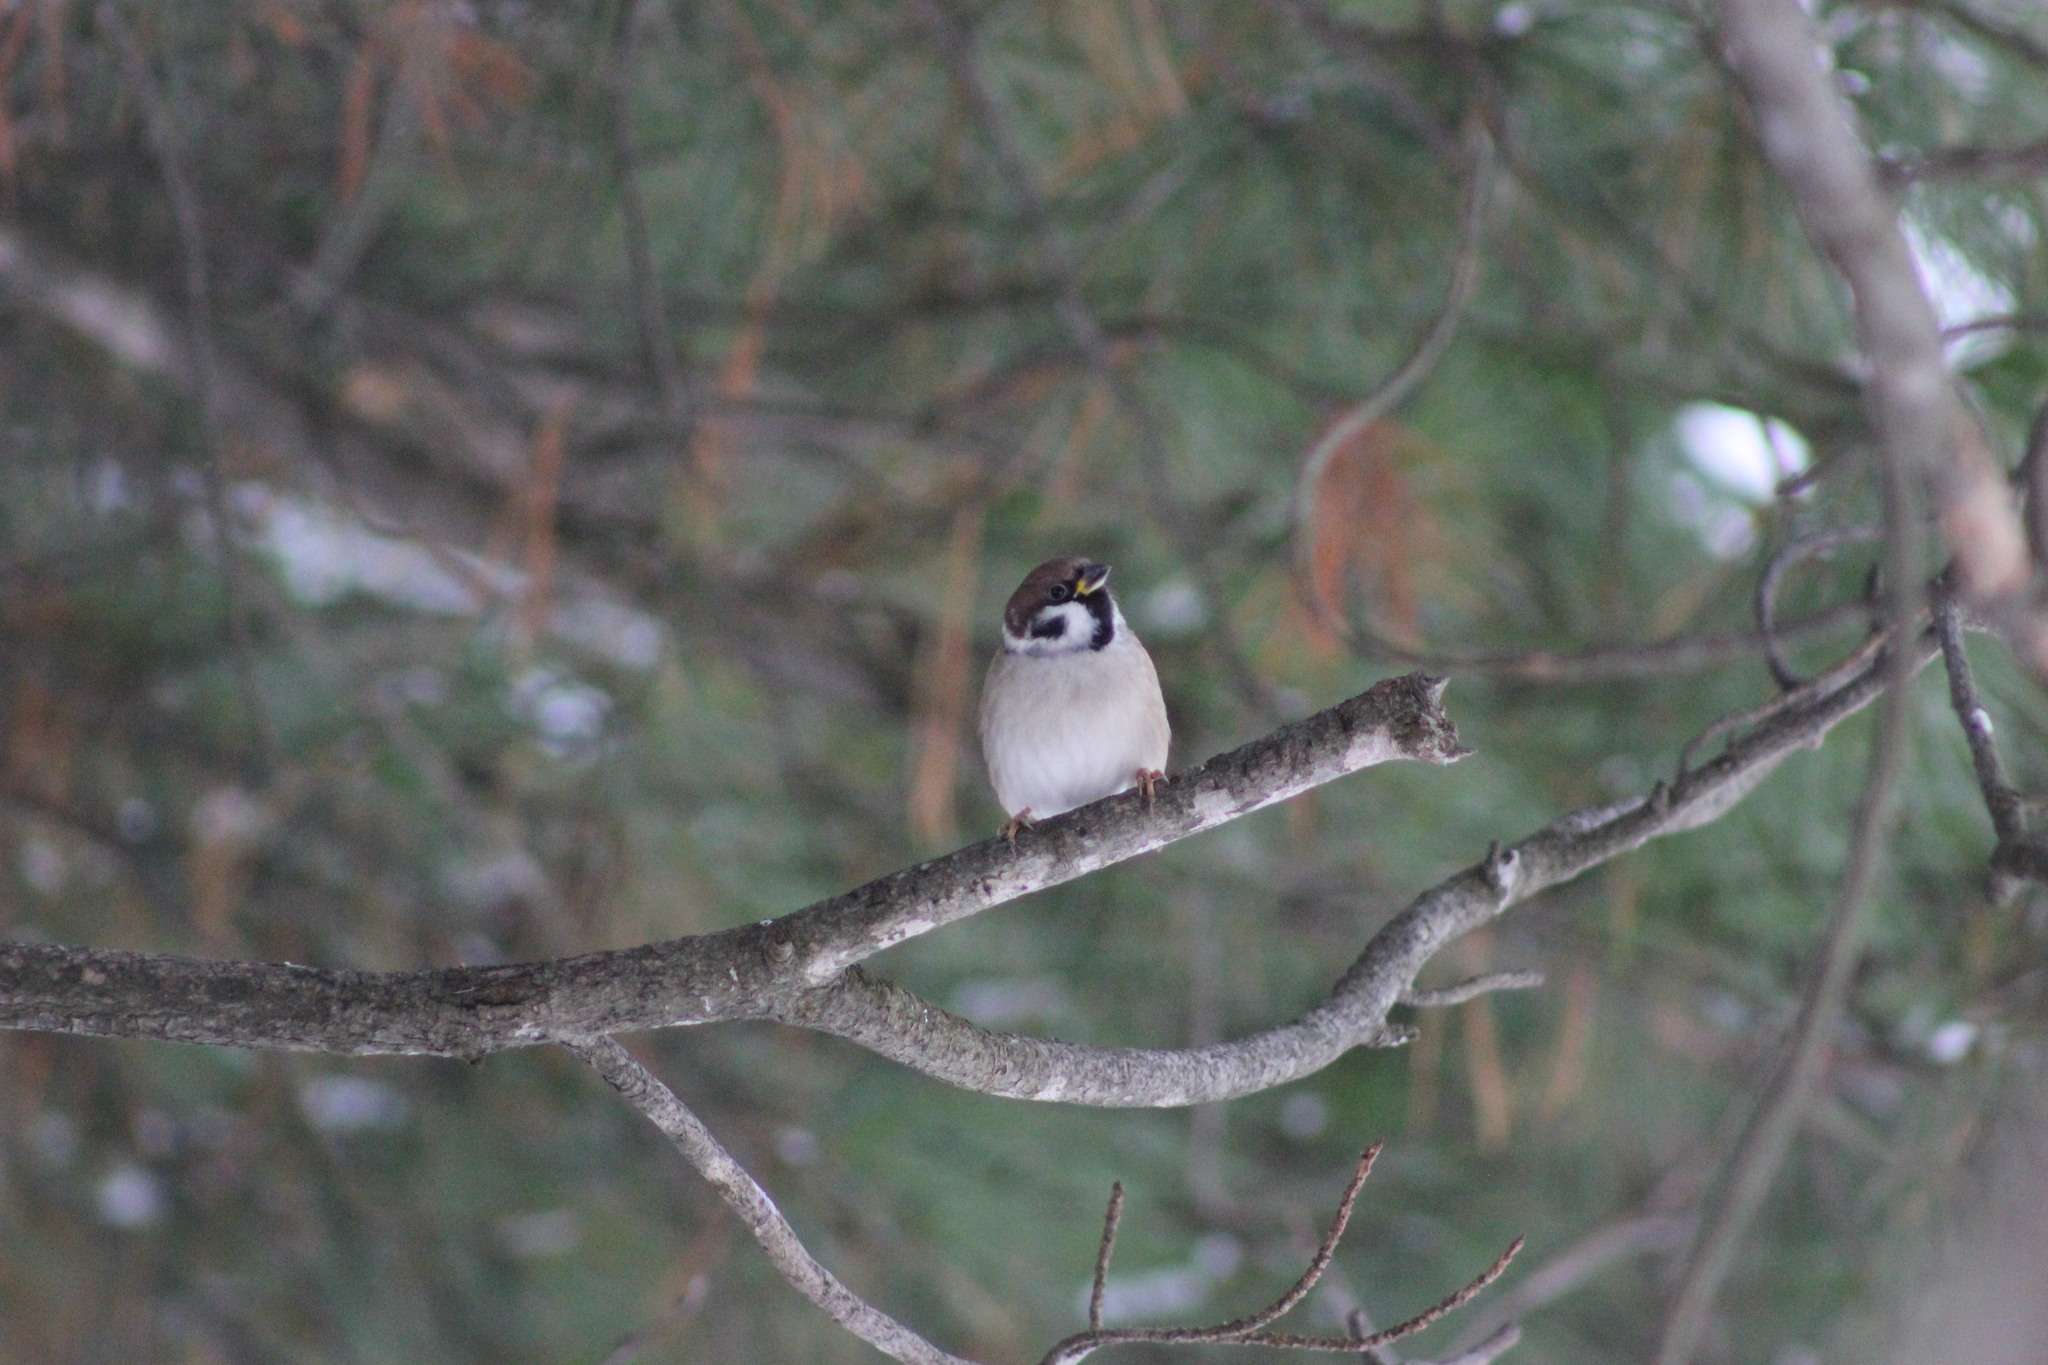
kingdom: Animalia
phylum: Chordata
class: Aves
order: Passeriformes
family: Passeridae
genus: Passer
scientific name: Passer montanus
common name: Eurasian tree sparrow
